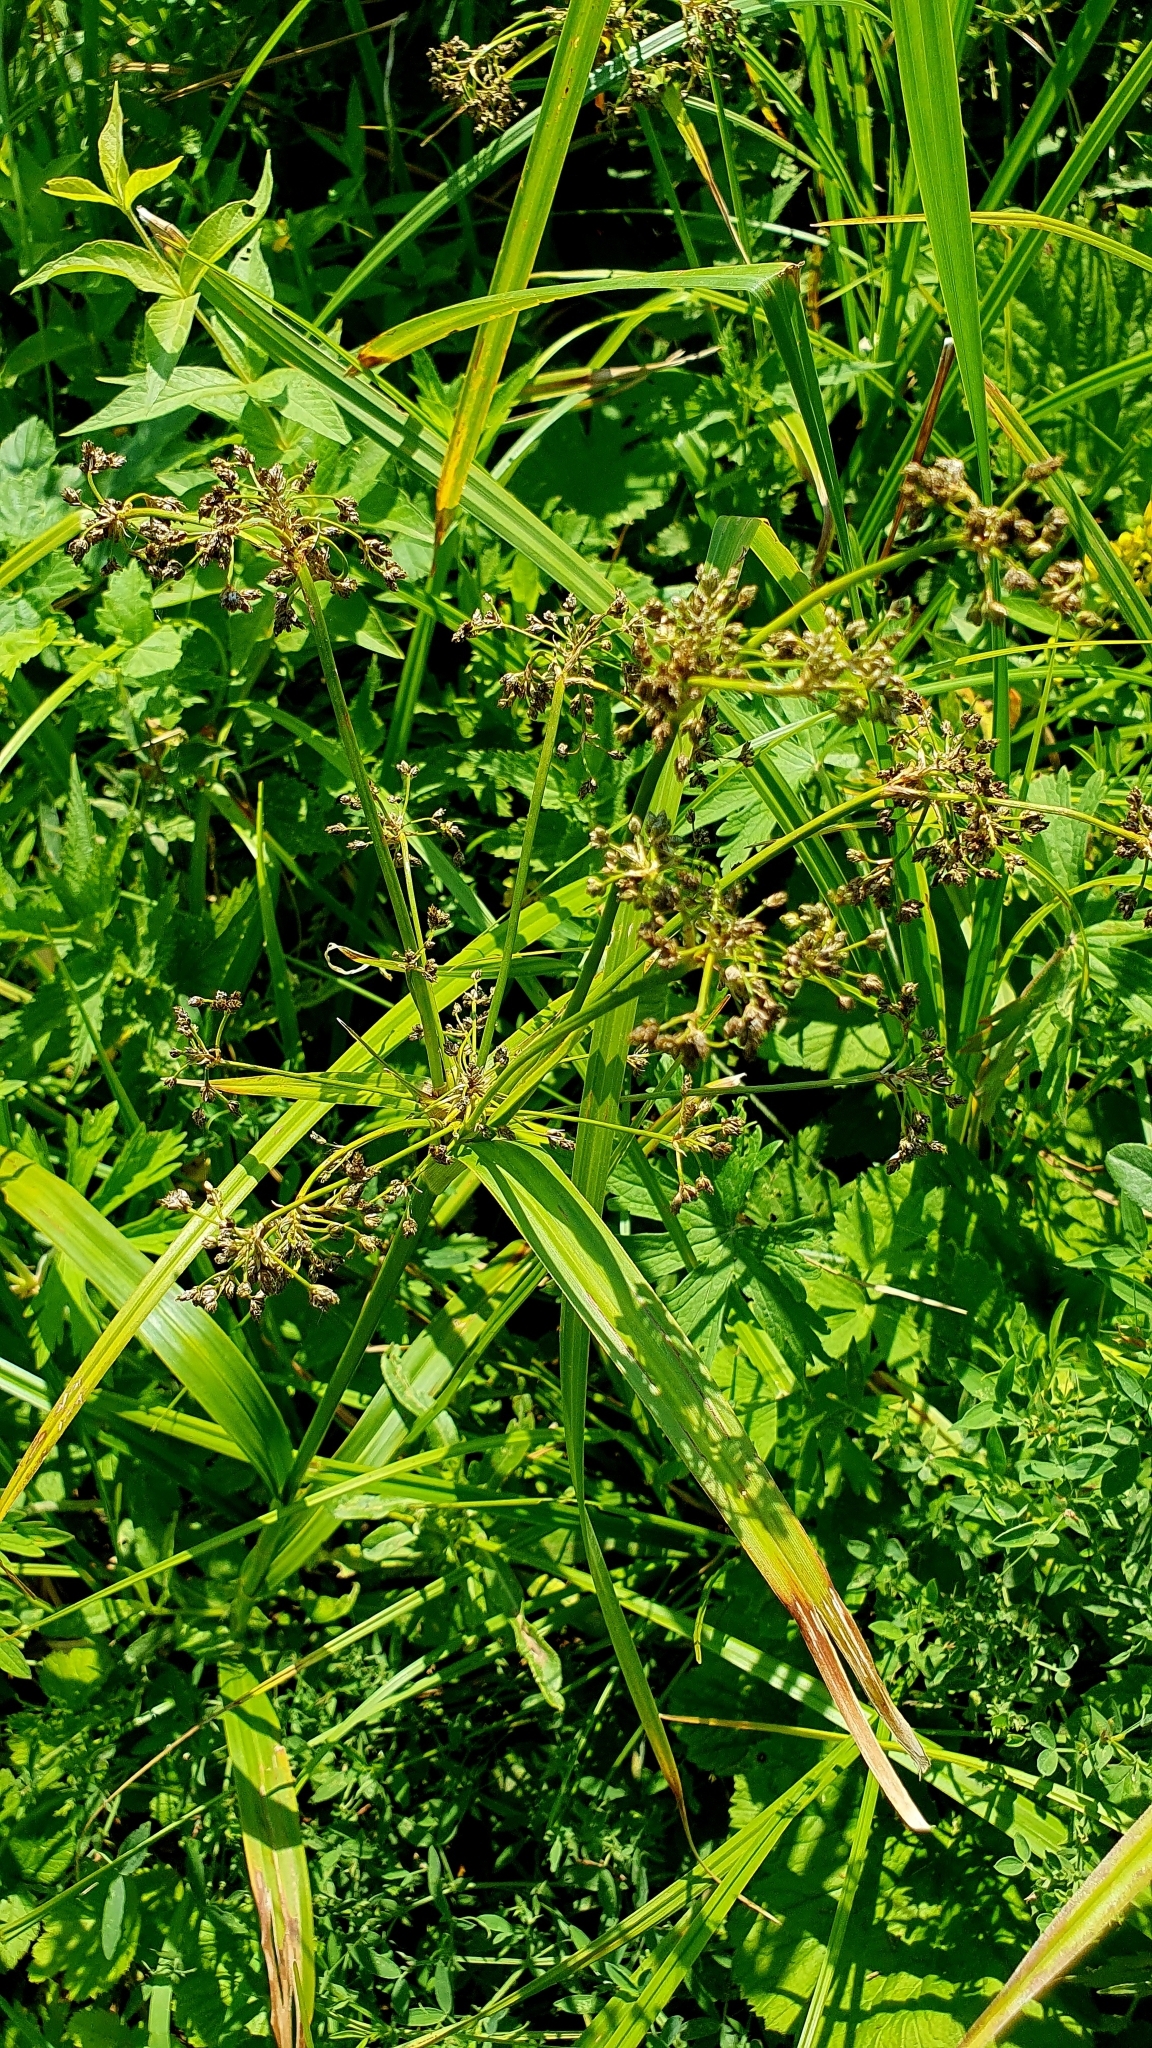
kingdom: Plantae
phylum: Tracheophyta
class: Liliopsida
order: Poales
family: Cyperaceae
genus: Scirpus
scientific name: Scirpus sylvaticus
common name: Wood club-rush
